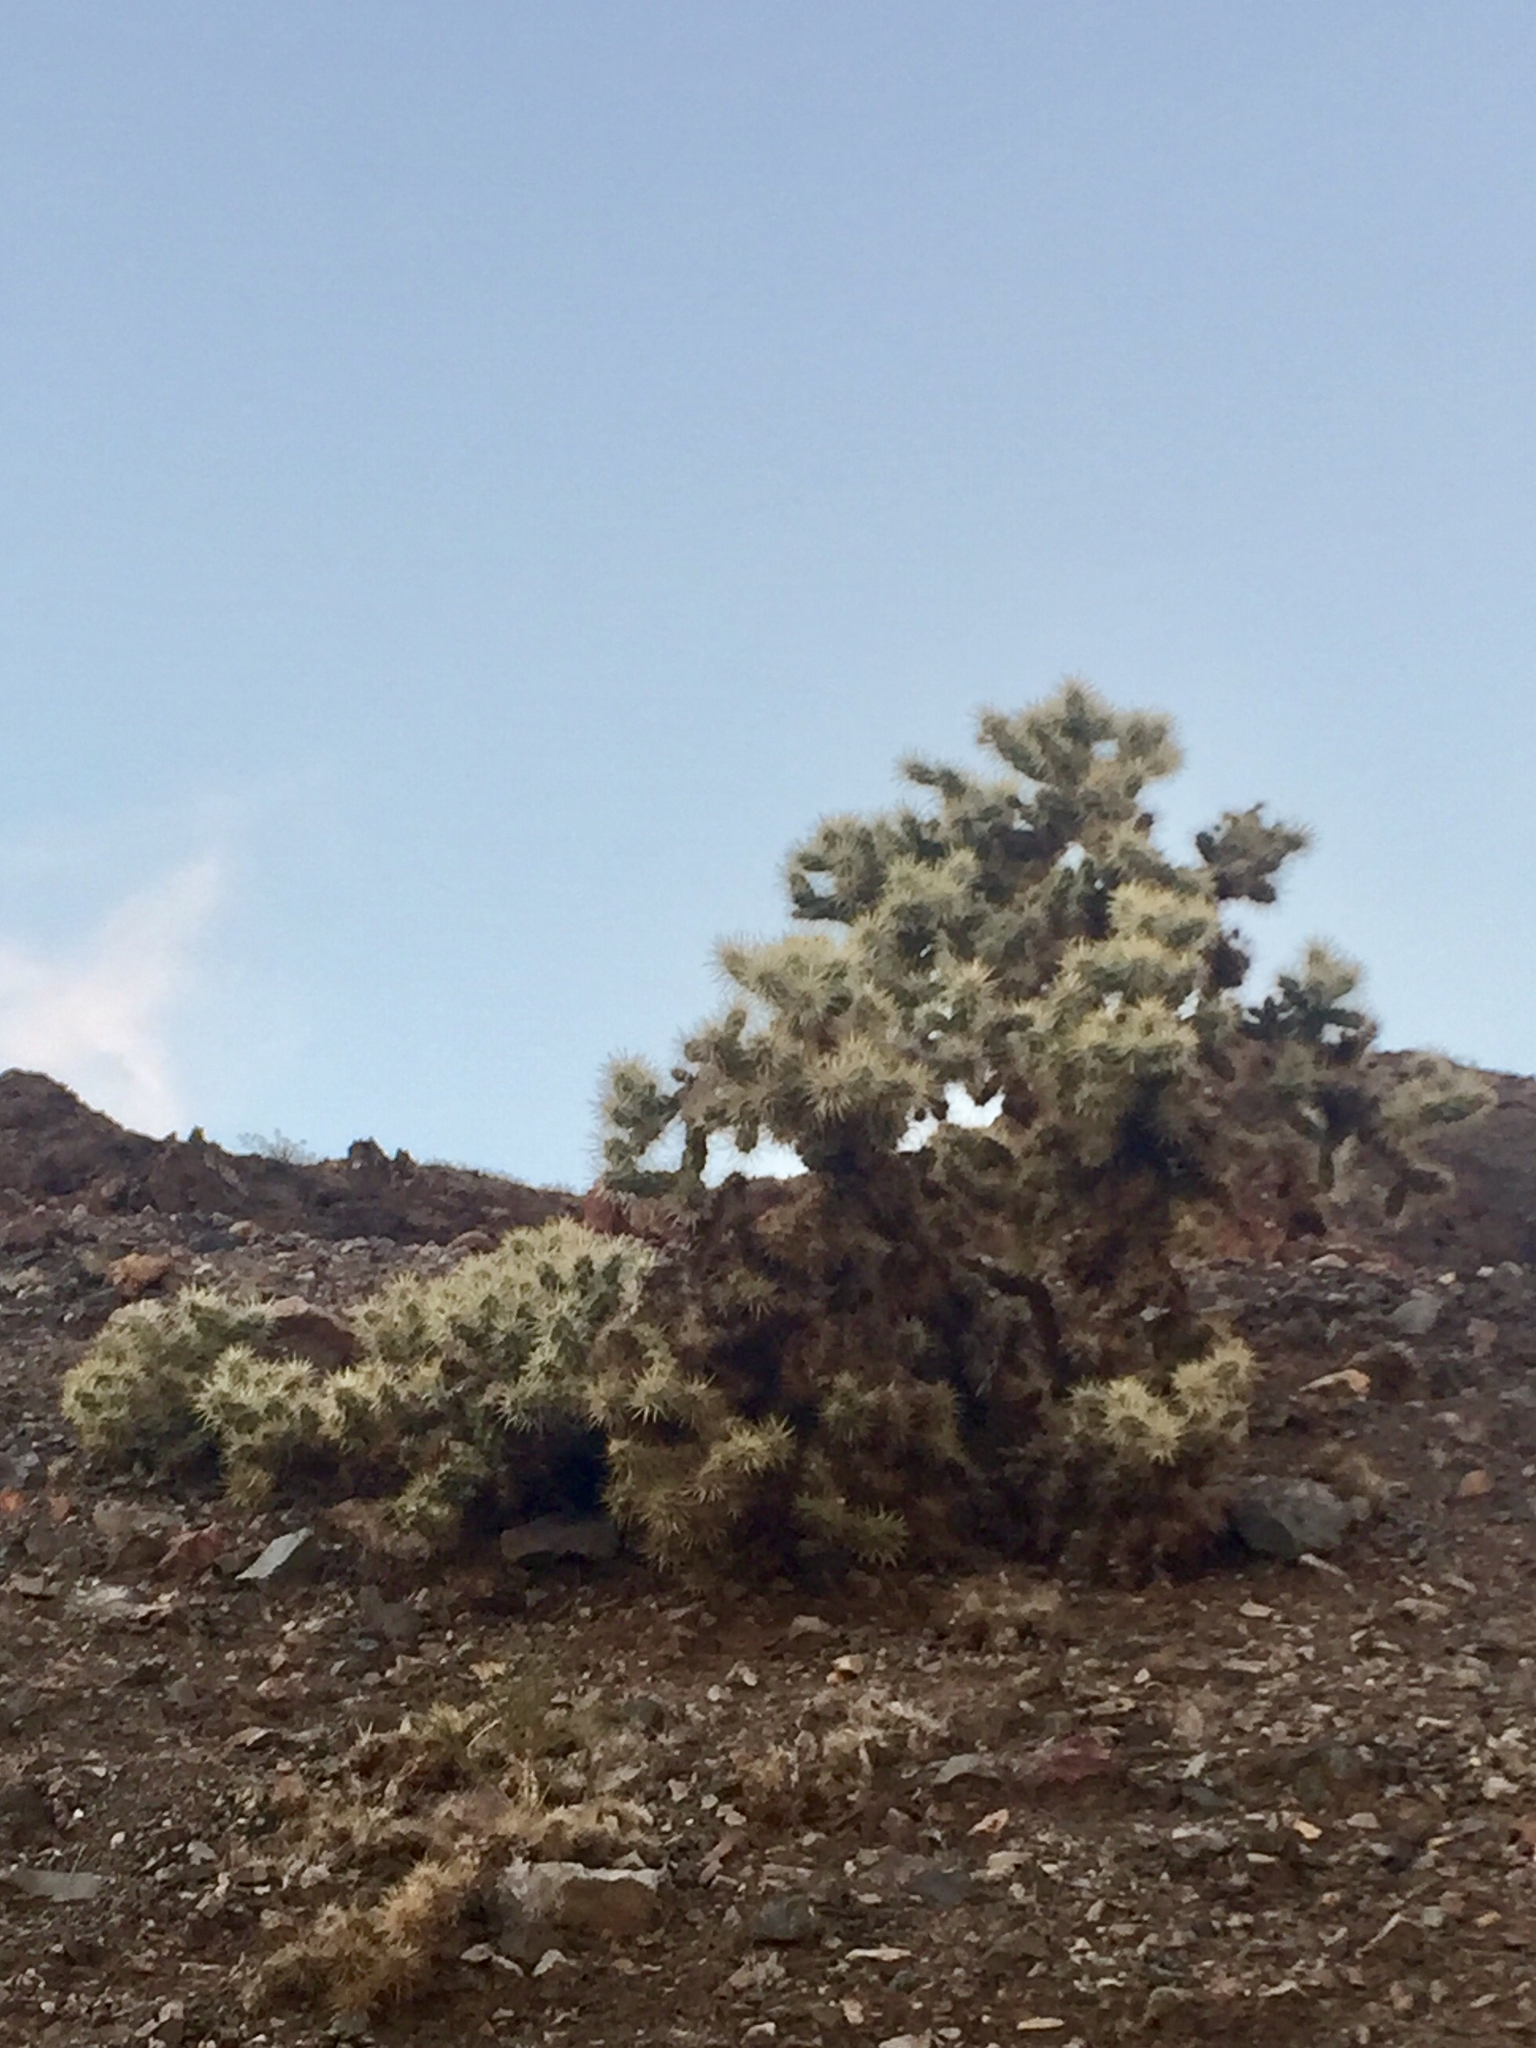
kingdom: Plantae
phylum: Tracheophyta
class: Magnoliopsida
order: Caryophyllales
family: Cactaceae
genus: Cylindropuntia
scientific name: Cylindropuntia echinocarpa
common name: Ground cholla
